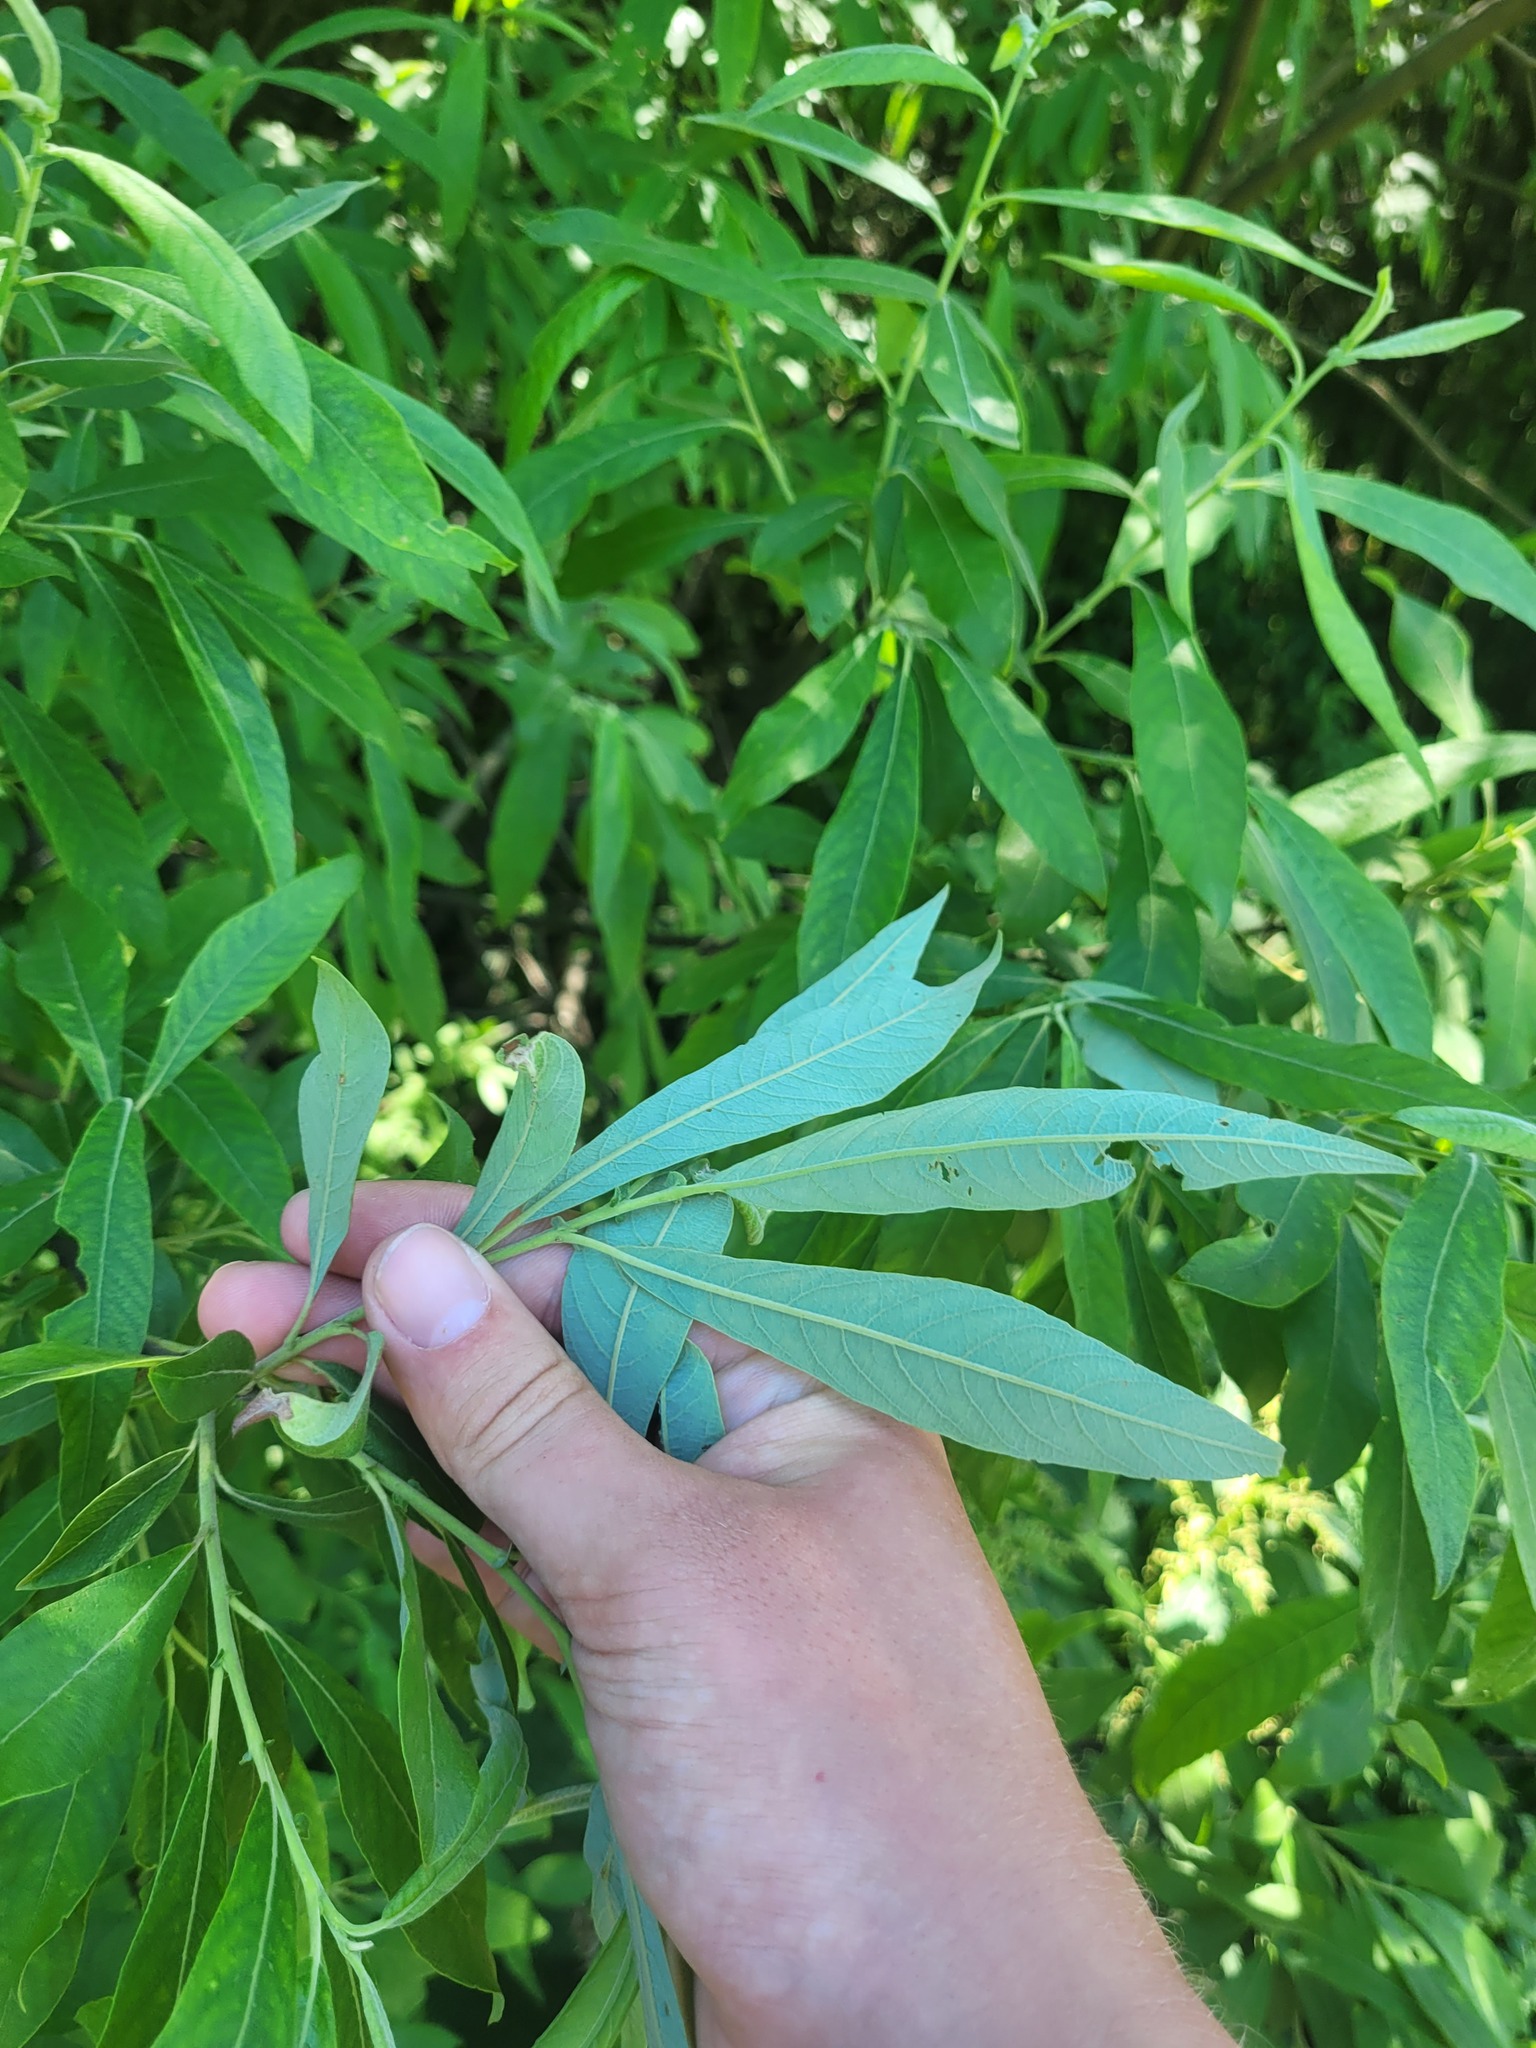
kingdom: Plantae
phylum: Tracheophyta
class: Magnoliopsida
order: Malpighiales
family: Salicaceae
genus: Salix
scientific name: Salix gmelinii
